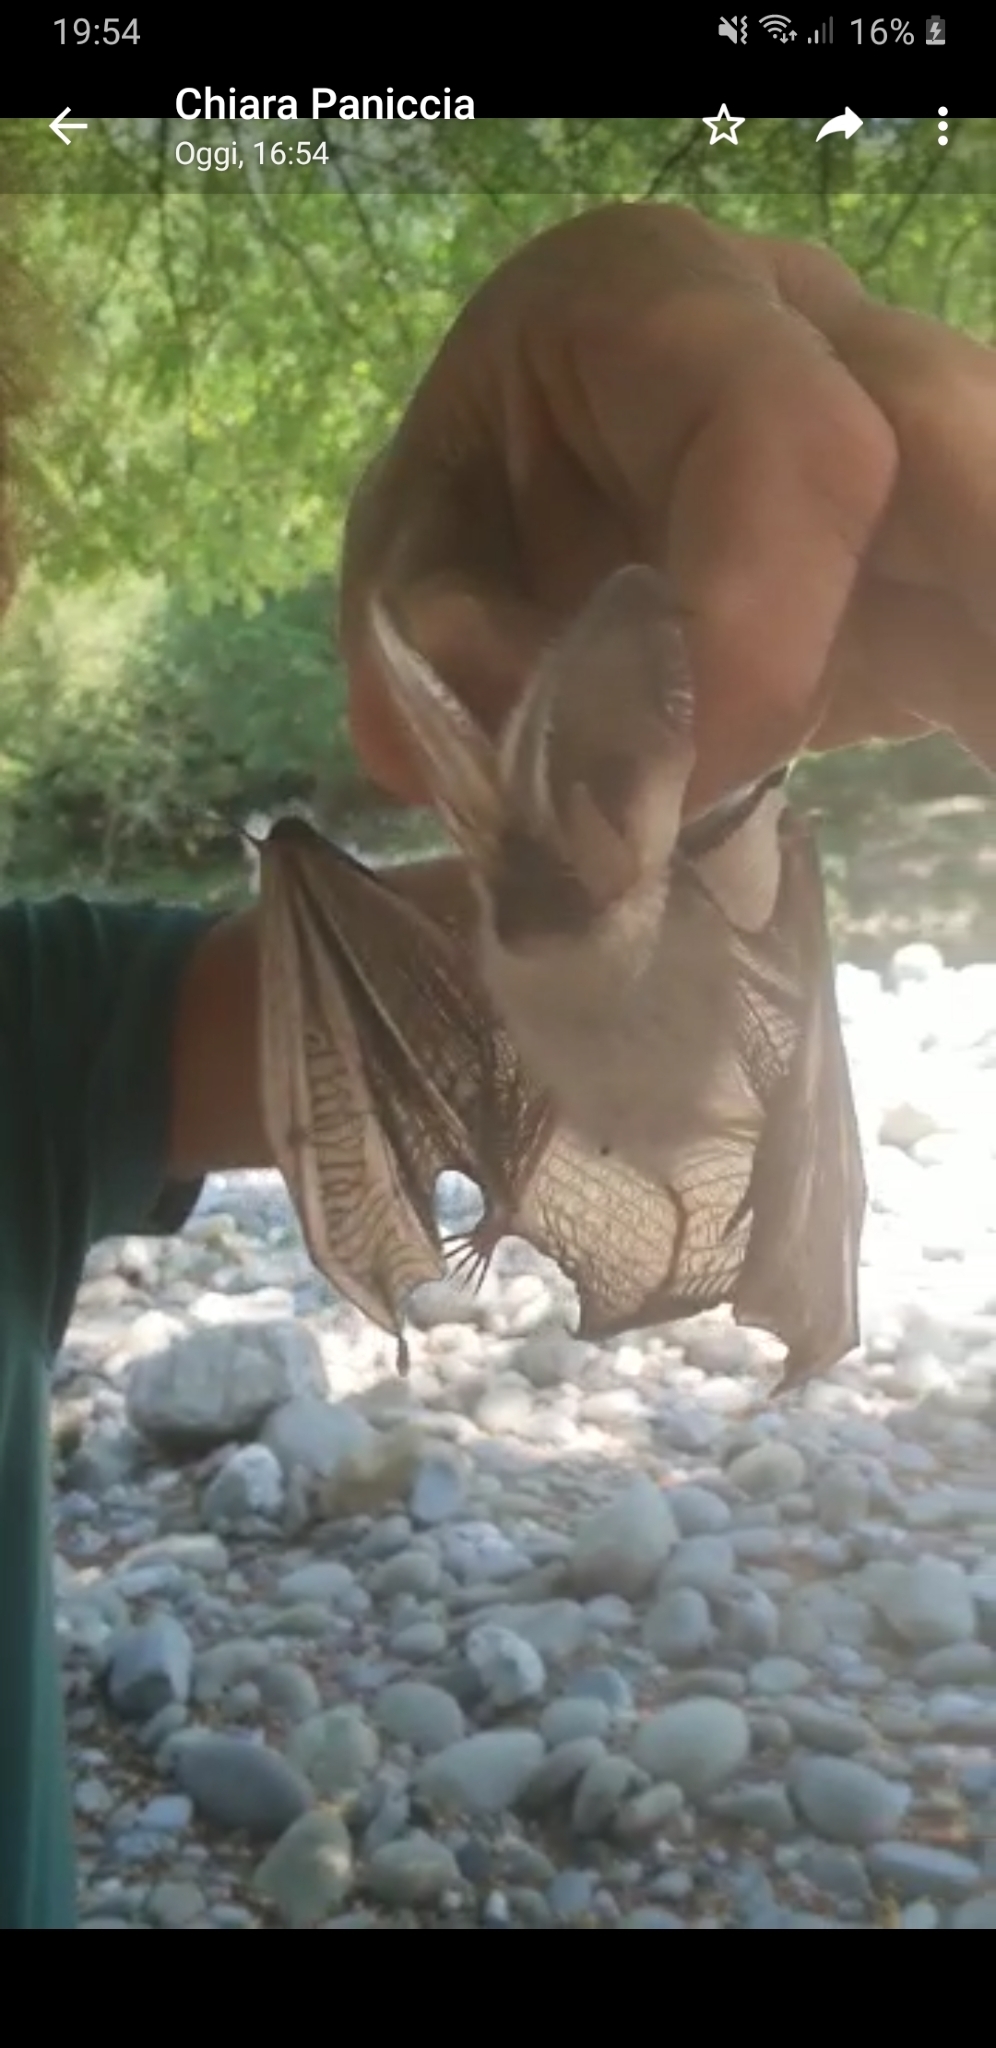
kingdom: Animalia
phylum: Chordata
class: Mammalia
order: Chiroptera
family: Vespertilionidae
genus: Plecotus
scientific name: Plecotus austriacus
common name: Grey long-eared bat
